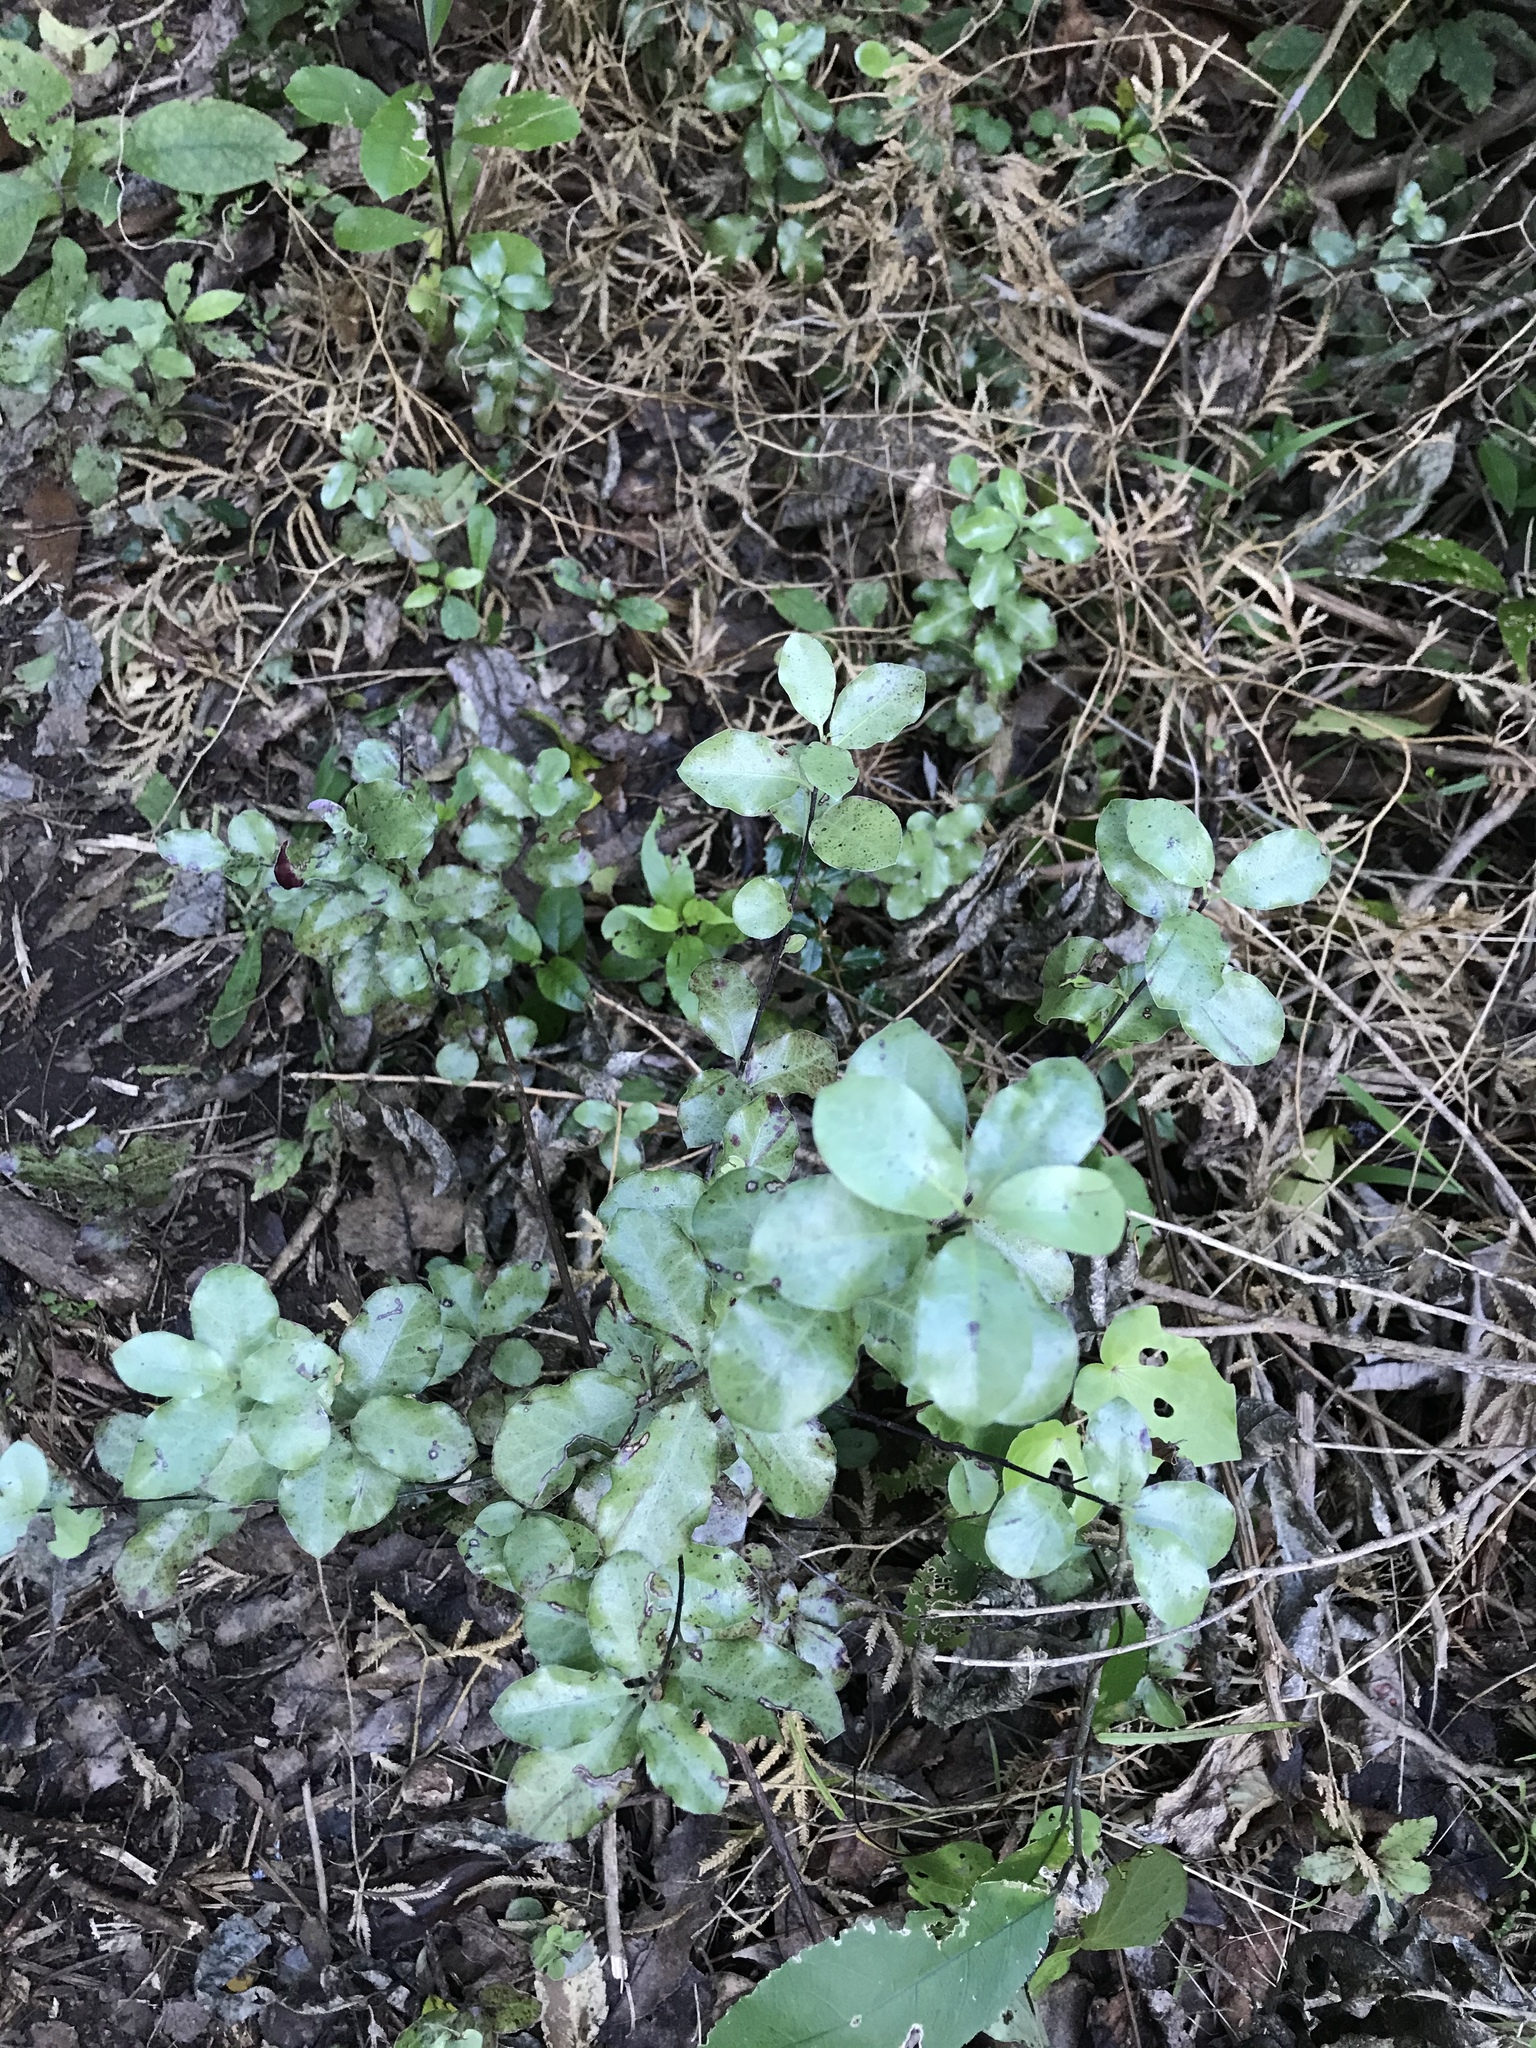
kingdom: Plantae
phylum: Tracheophyta
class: Magnoliopsida
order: Apiales
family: Pittosporaceae
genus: Pittosporum
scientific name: Pittosporum tenuifolium
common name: Kohuhu
